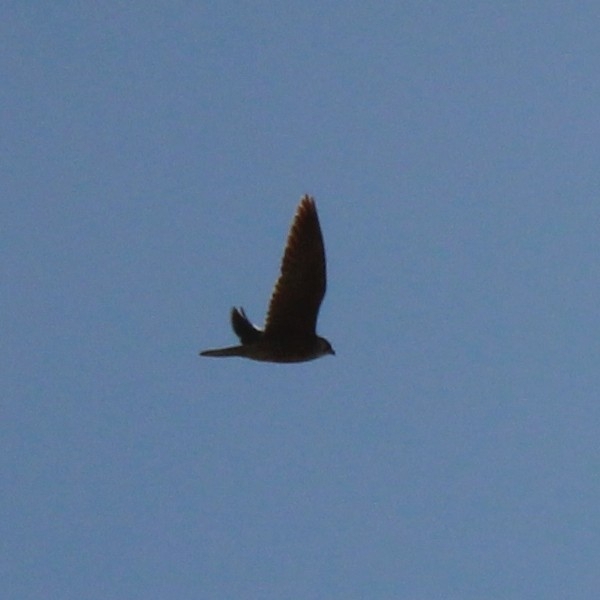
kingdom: Animalia
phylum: Chordata
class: Aves
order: Falconiformes
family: Falconidae
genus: Falco
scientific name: Falco peregrinus
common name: Peregrine falcon
